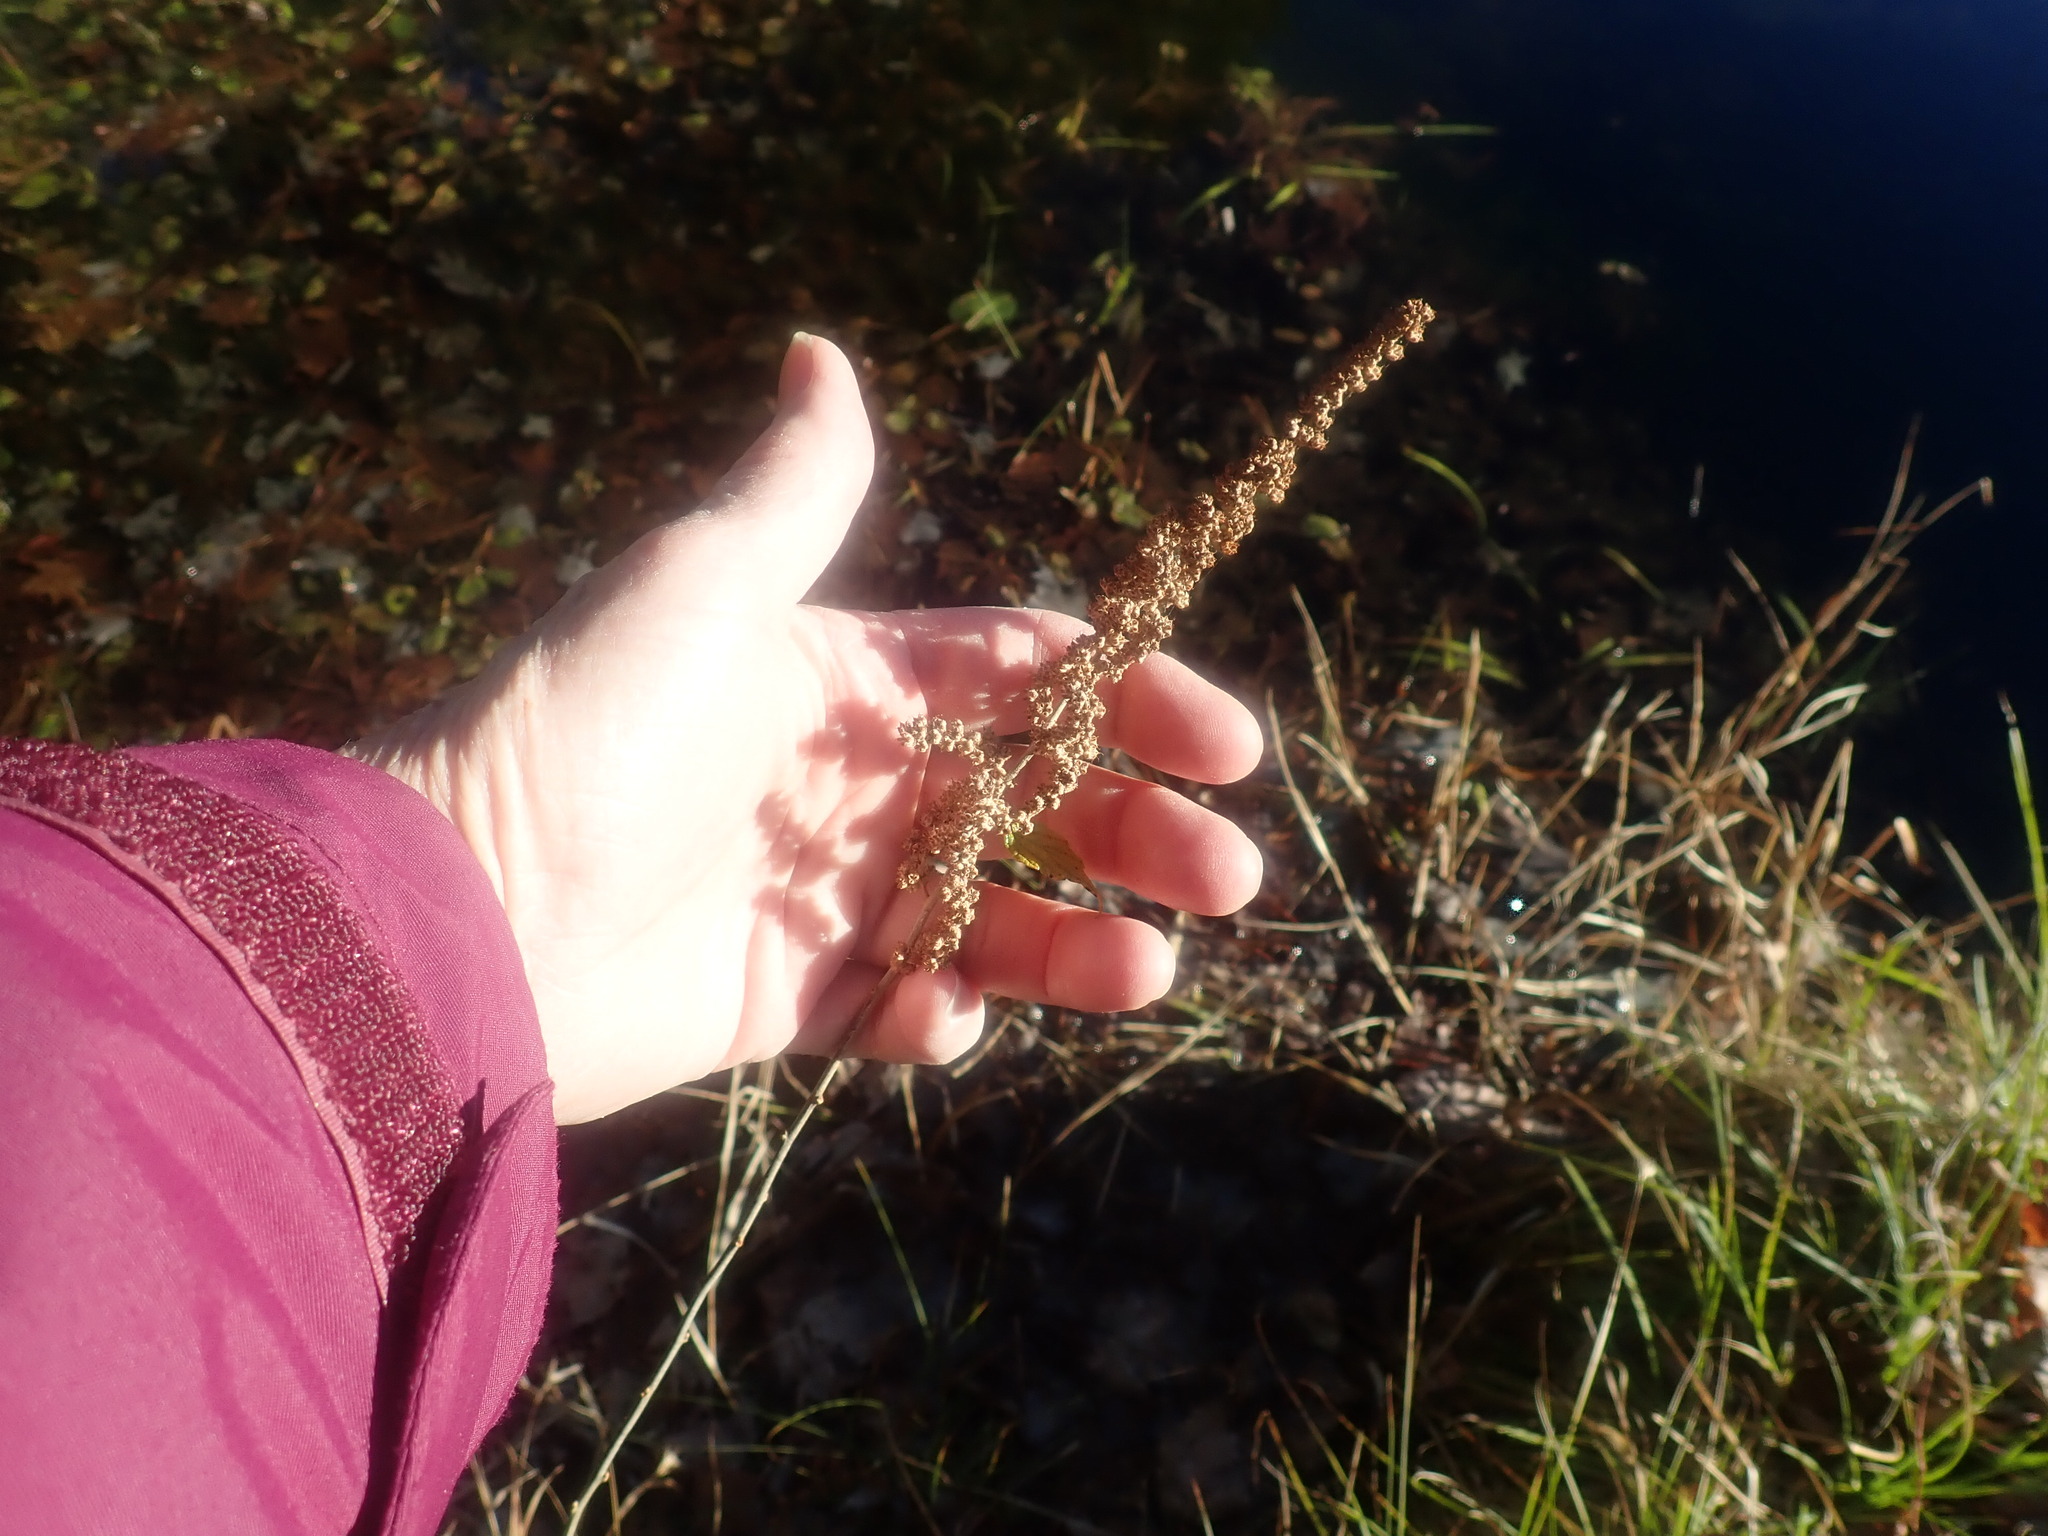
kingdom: Plantae
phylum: Tracheophyta
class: Magnoliopsida
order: Rosales
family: Rosaceae
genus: Spiraea
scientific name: Spiraea tomentosa
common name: Hardhack
